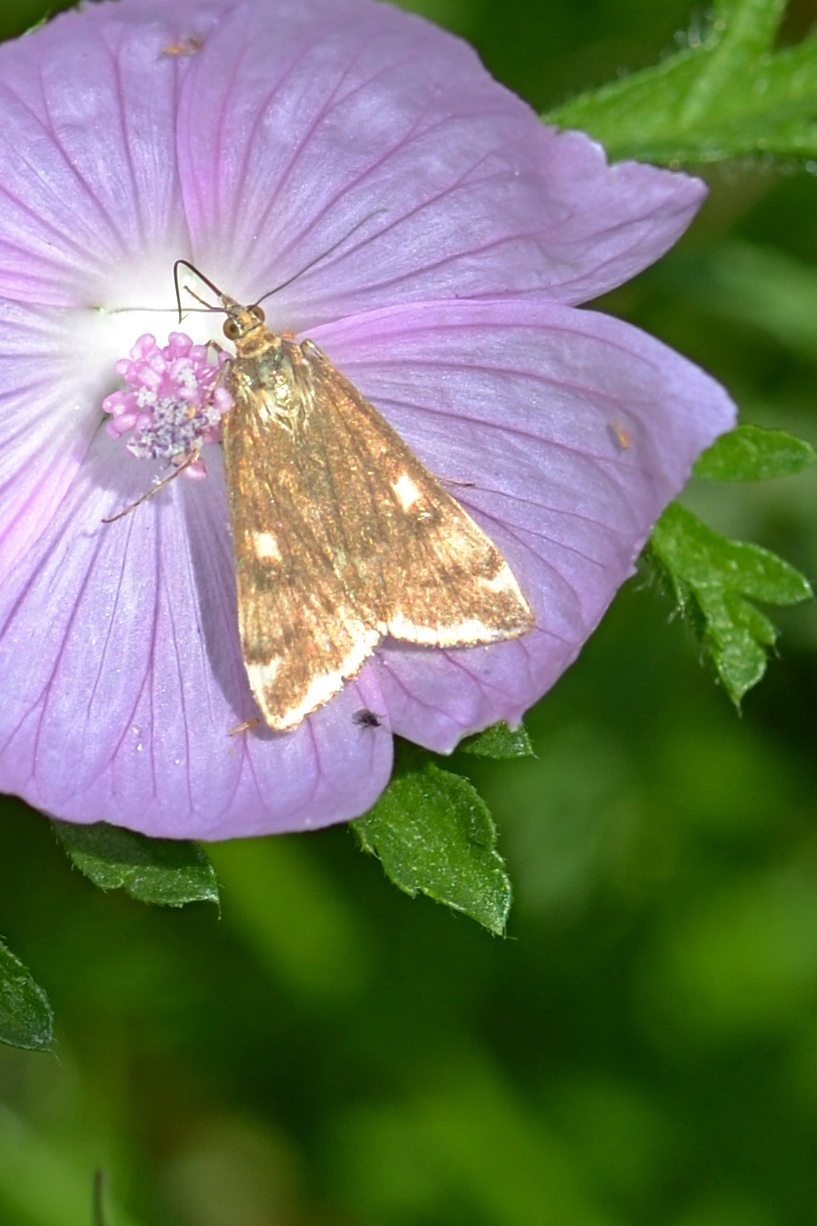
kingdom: Animalia
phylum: Arthropoda
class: Insecta
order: Lepidoptera
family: Crambidae
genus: Loxostege
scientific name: Loxostege sticticalis
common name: Crambid moth
